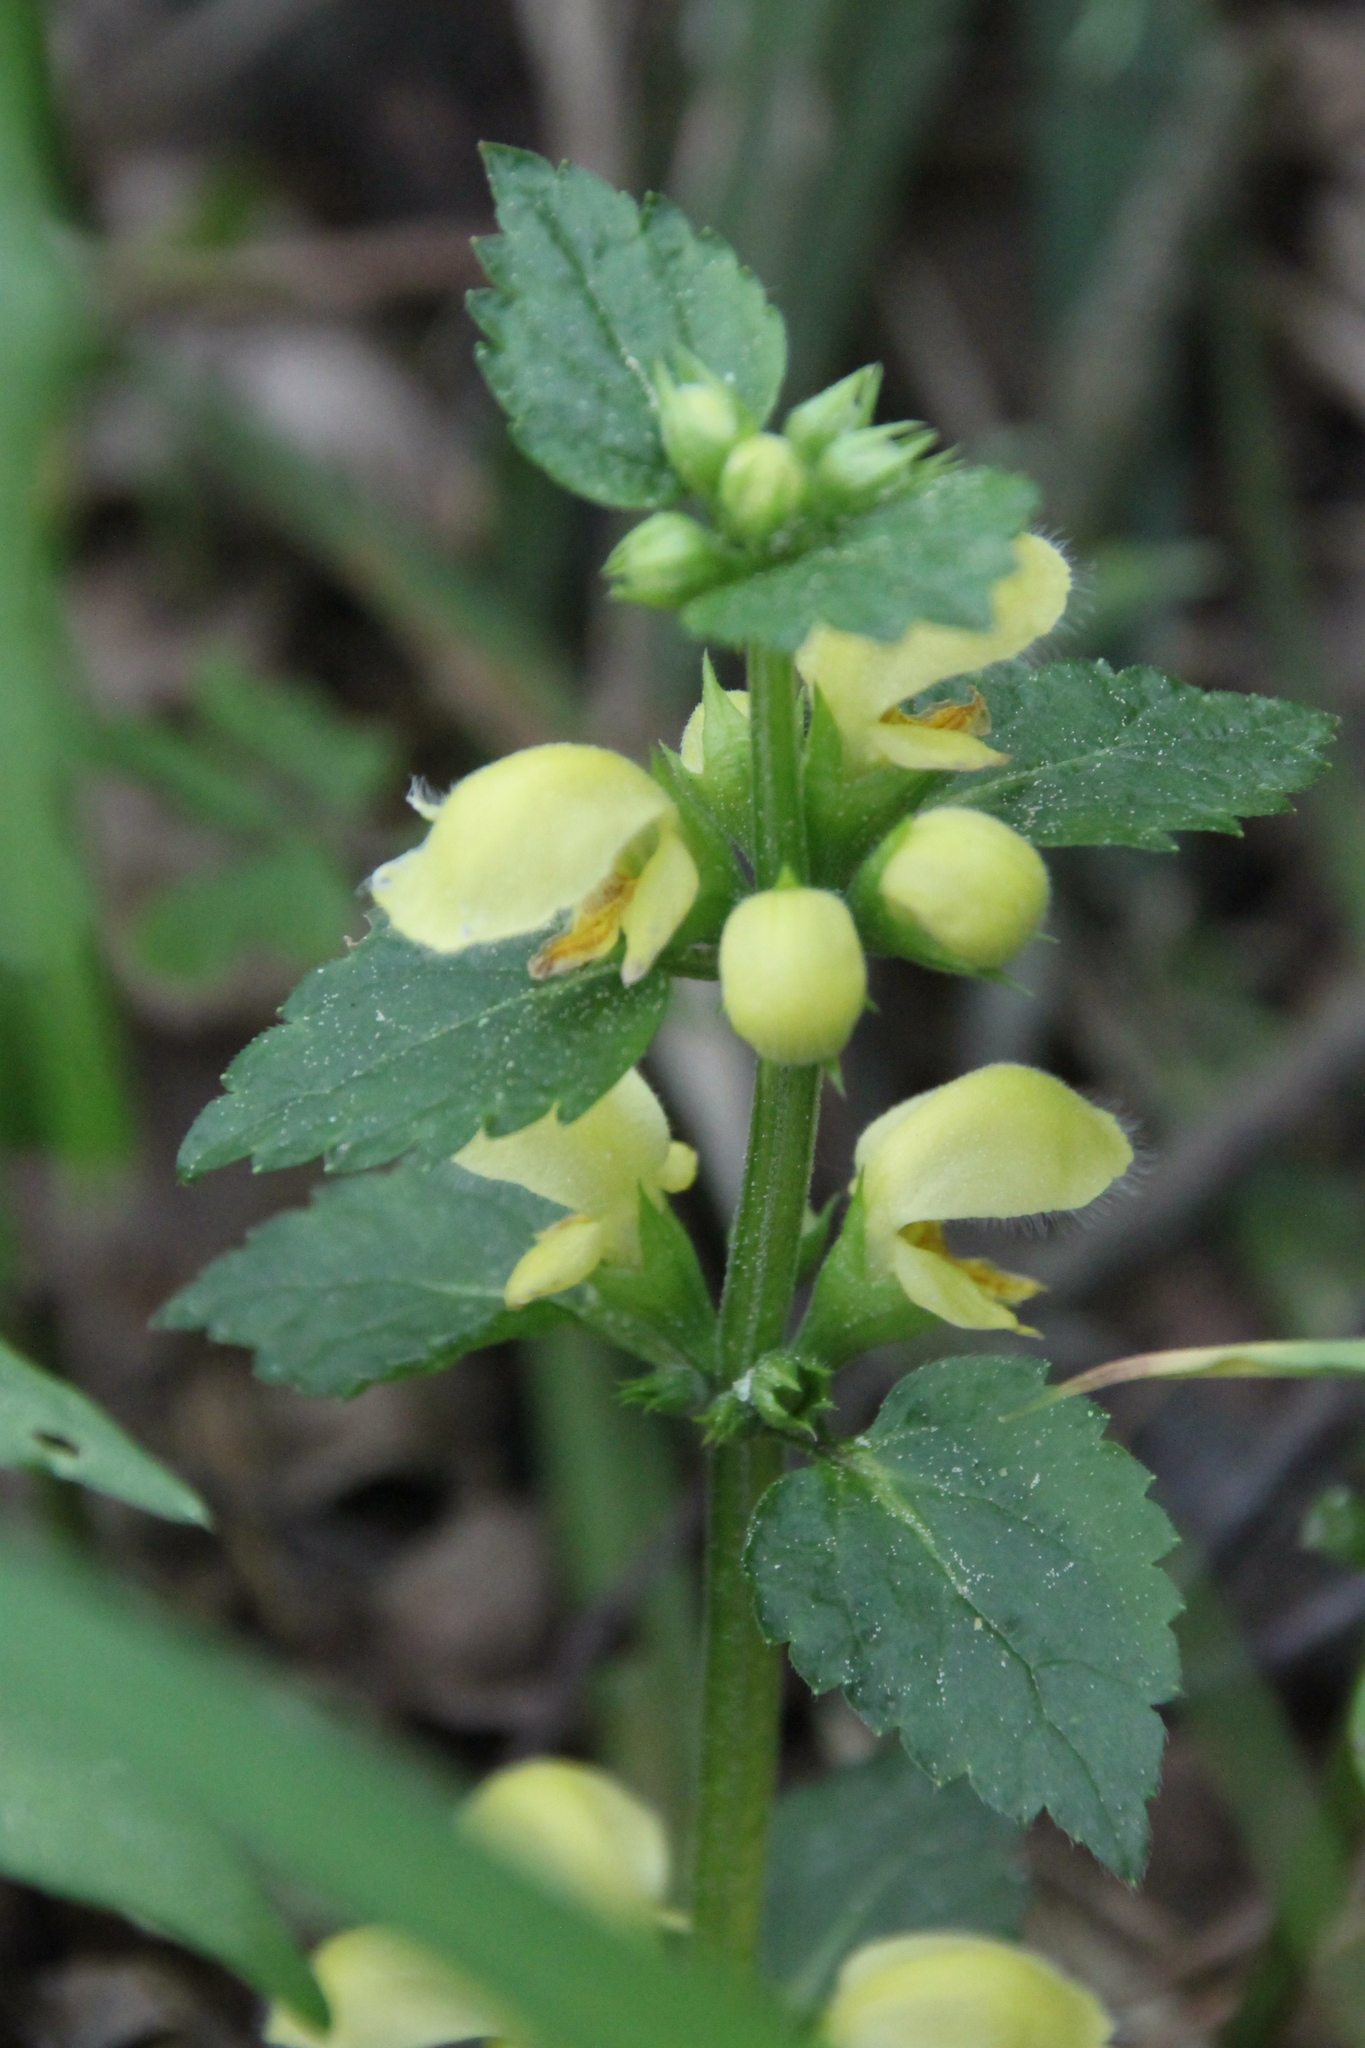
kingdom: Plantae
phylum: Tracheophyta
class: Magnoliopsida
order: Lamiales
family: Lamiaceae
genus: Lamium
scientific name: Lamium galeobdolon
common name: Yellow archangel
